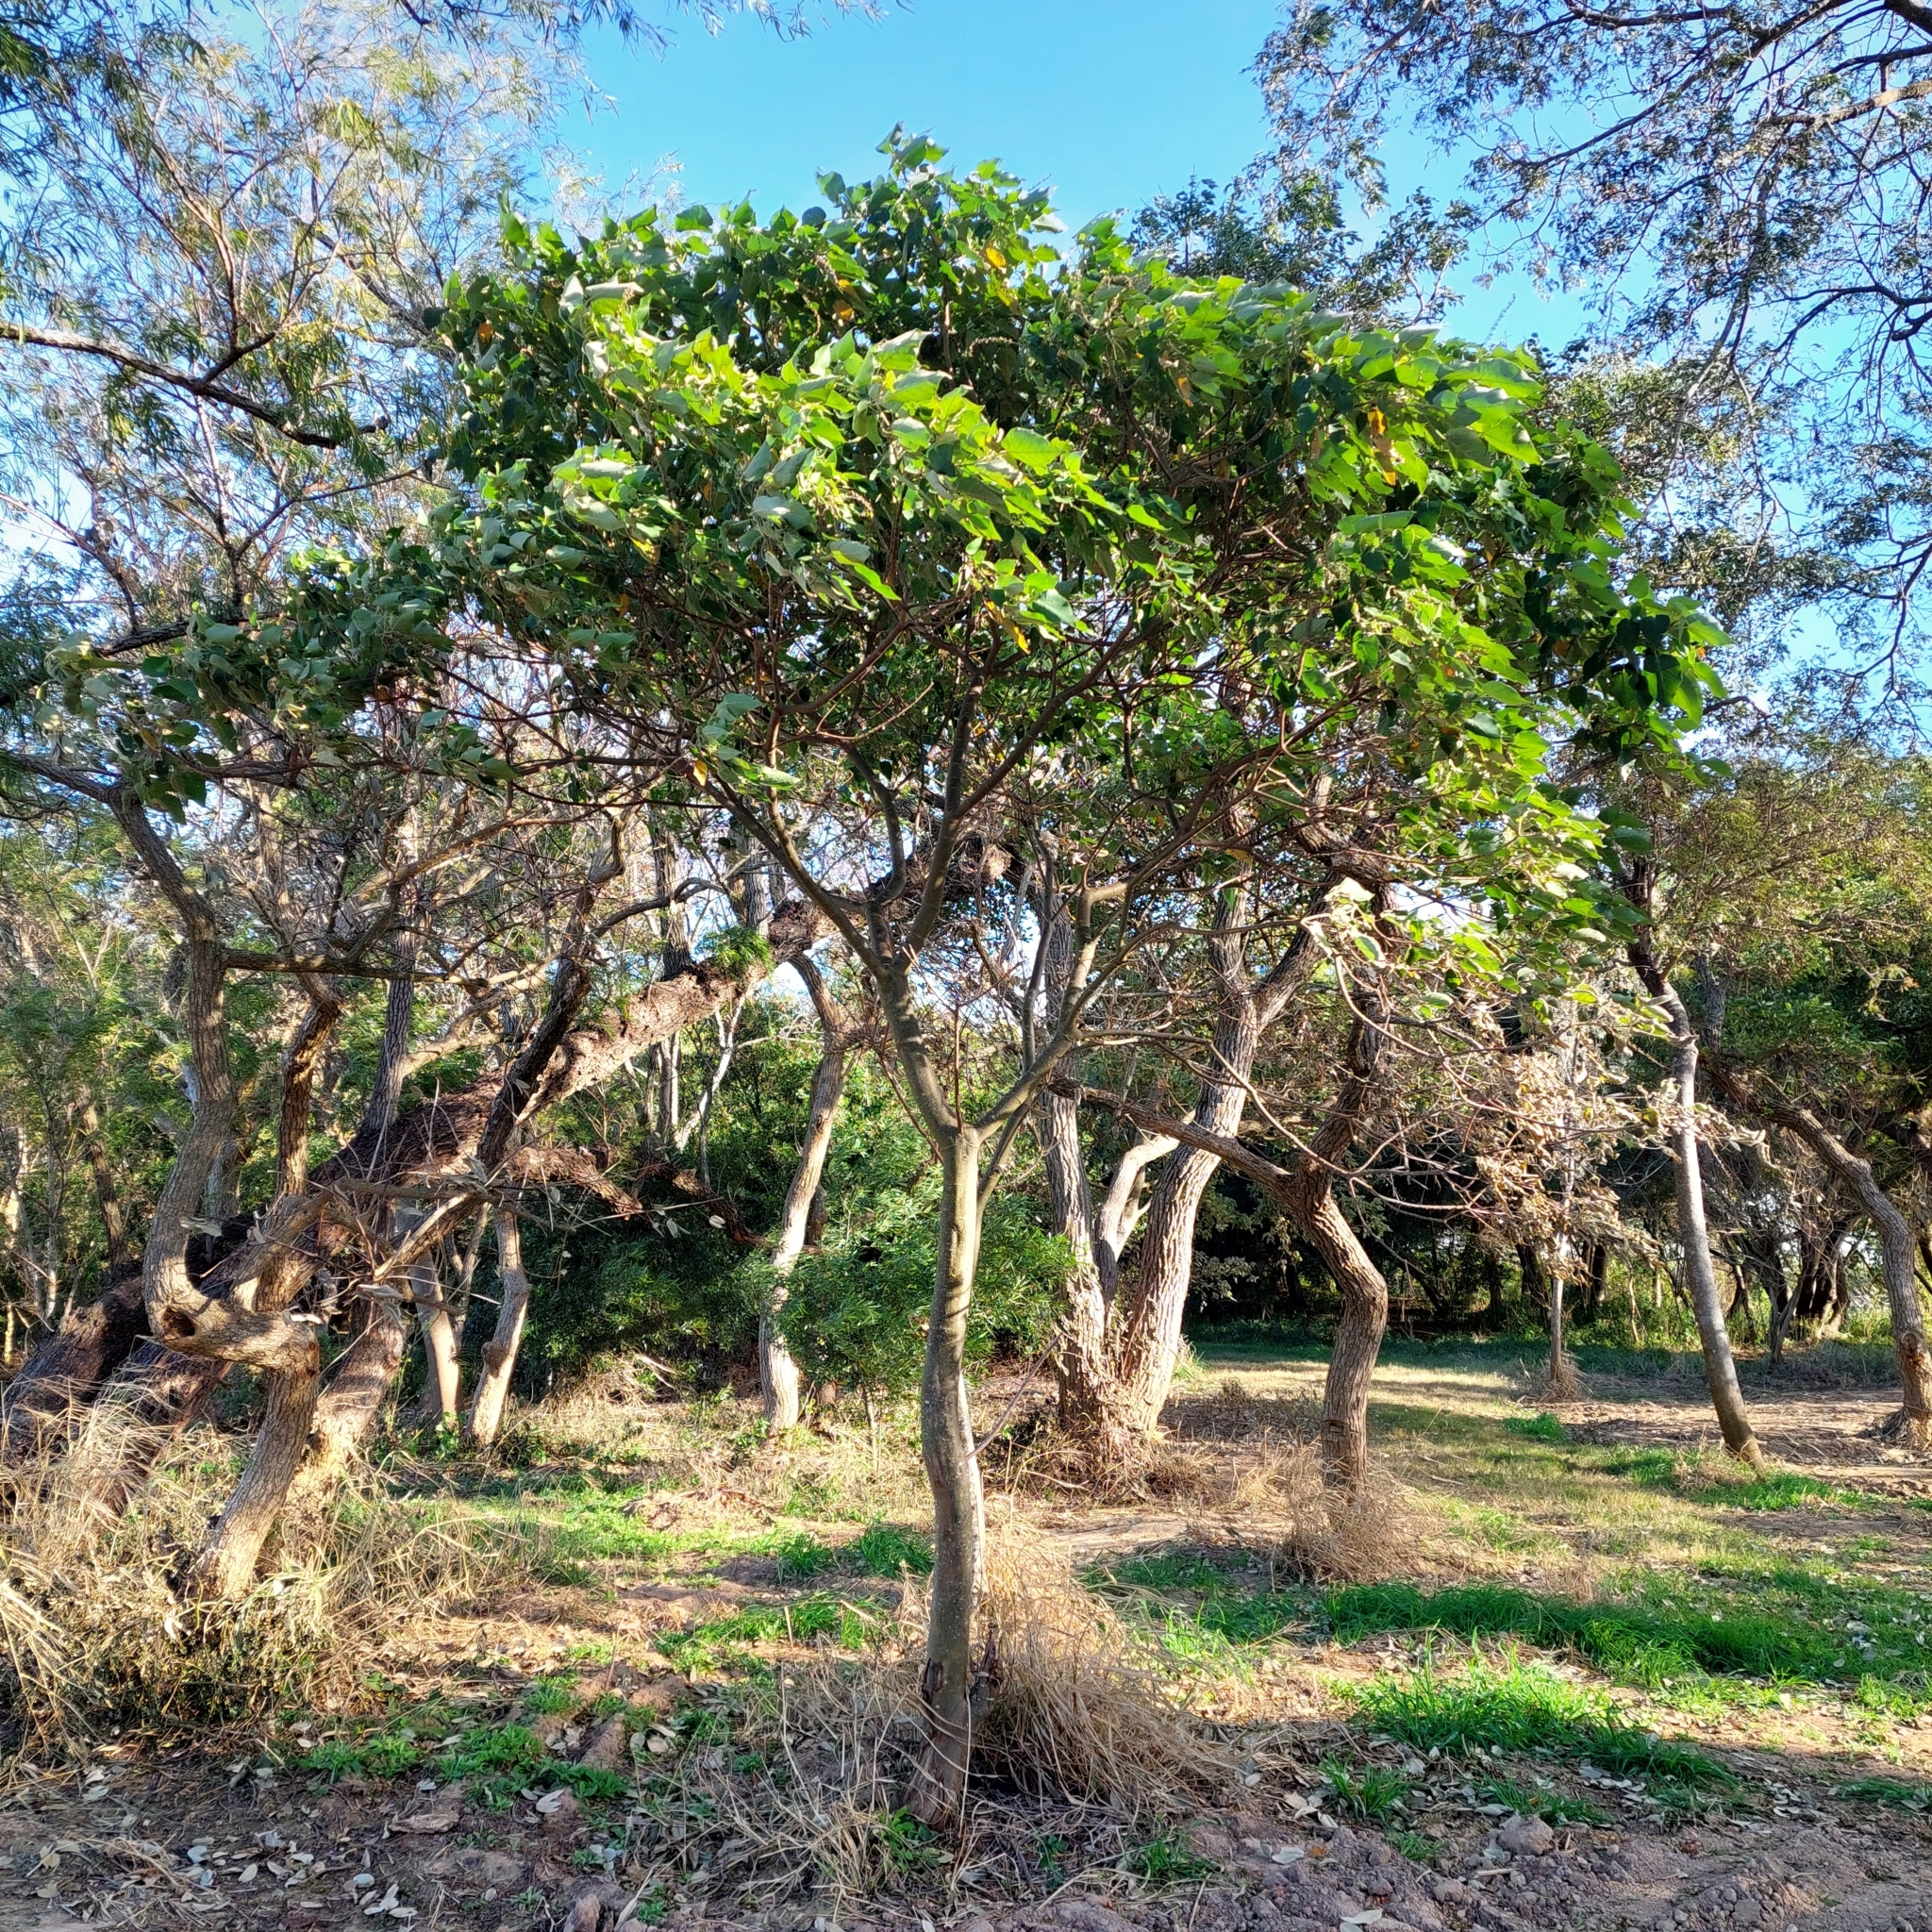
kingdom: Plantae
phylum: Tracheophyta
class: Magnoliopsida
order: Malpighiales
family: Euphorbiaceae
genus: Croton
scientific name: Croton urucurana
